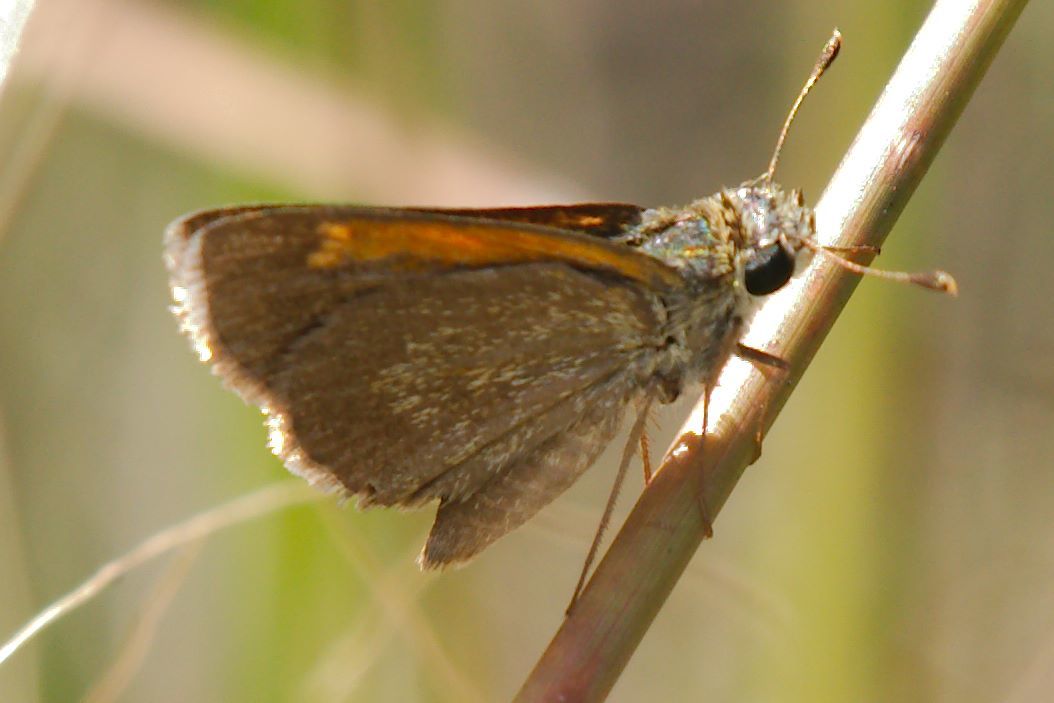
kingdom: Animalia
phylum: Arthropoda
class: Insecta
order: Lepidoptera
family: Hesperiidae
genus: Polites
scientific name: Polites baracoa
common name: Baracoa skipper
